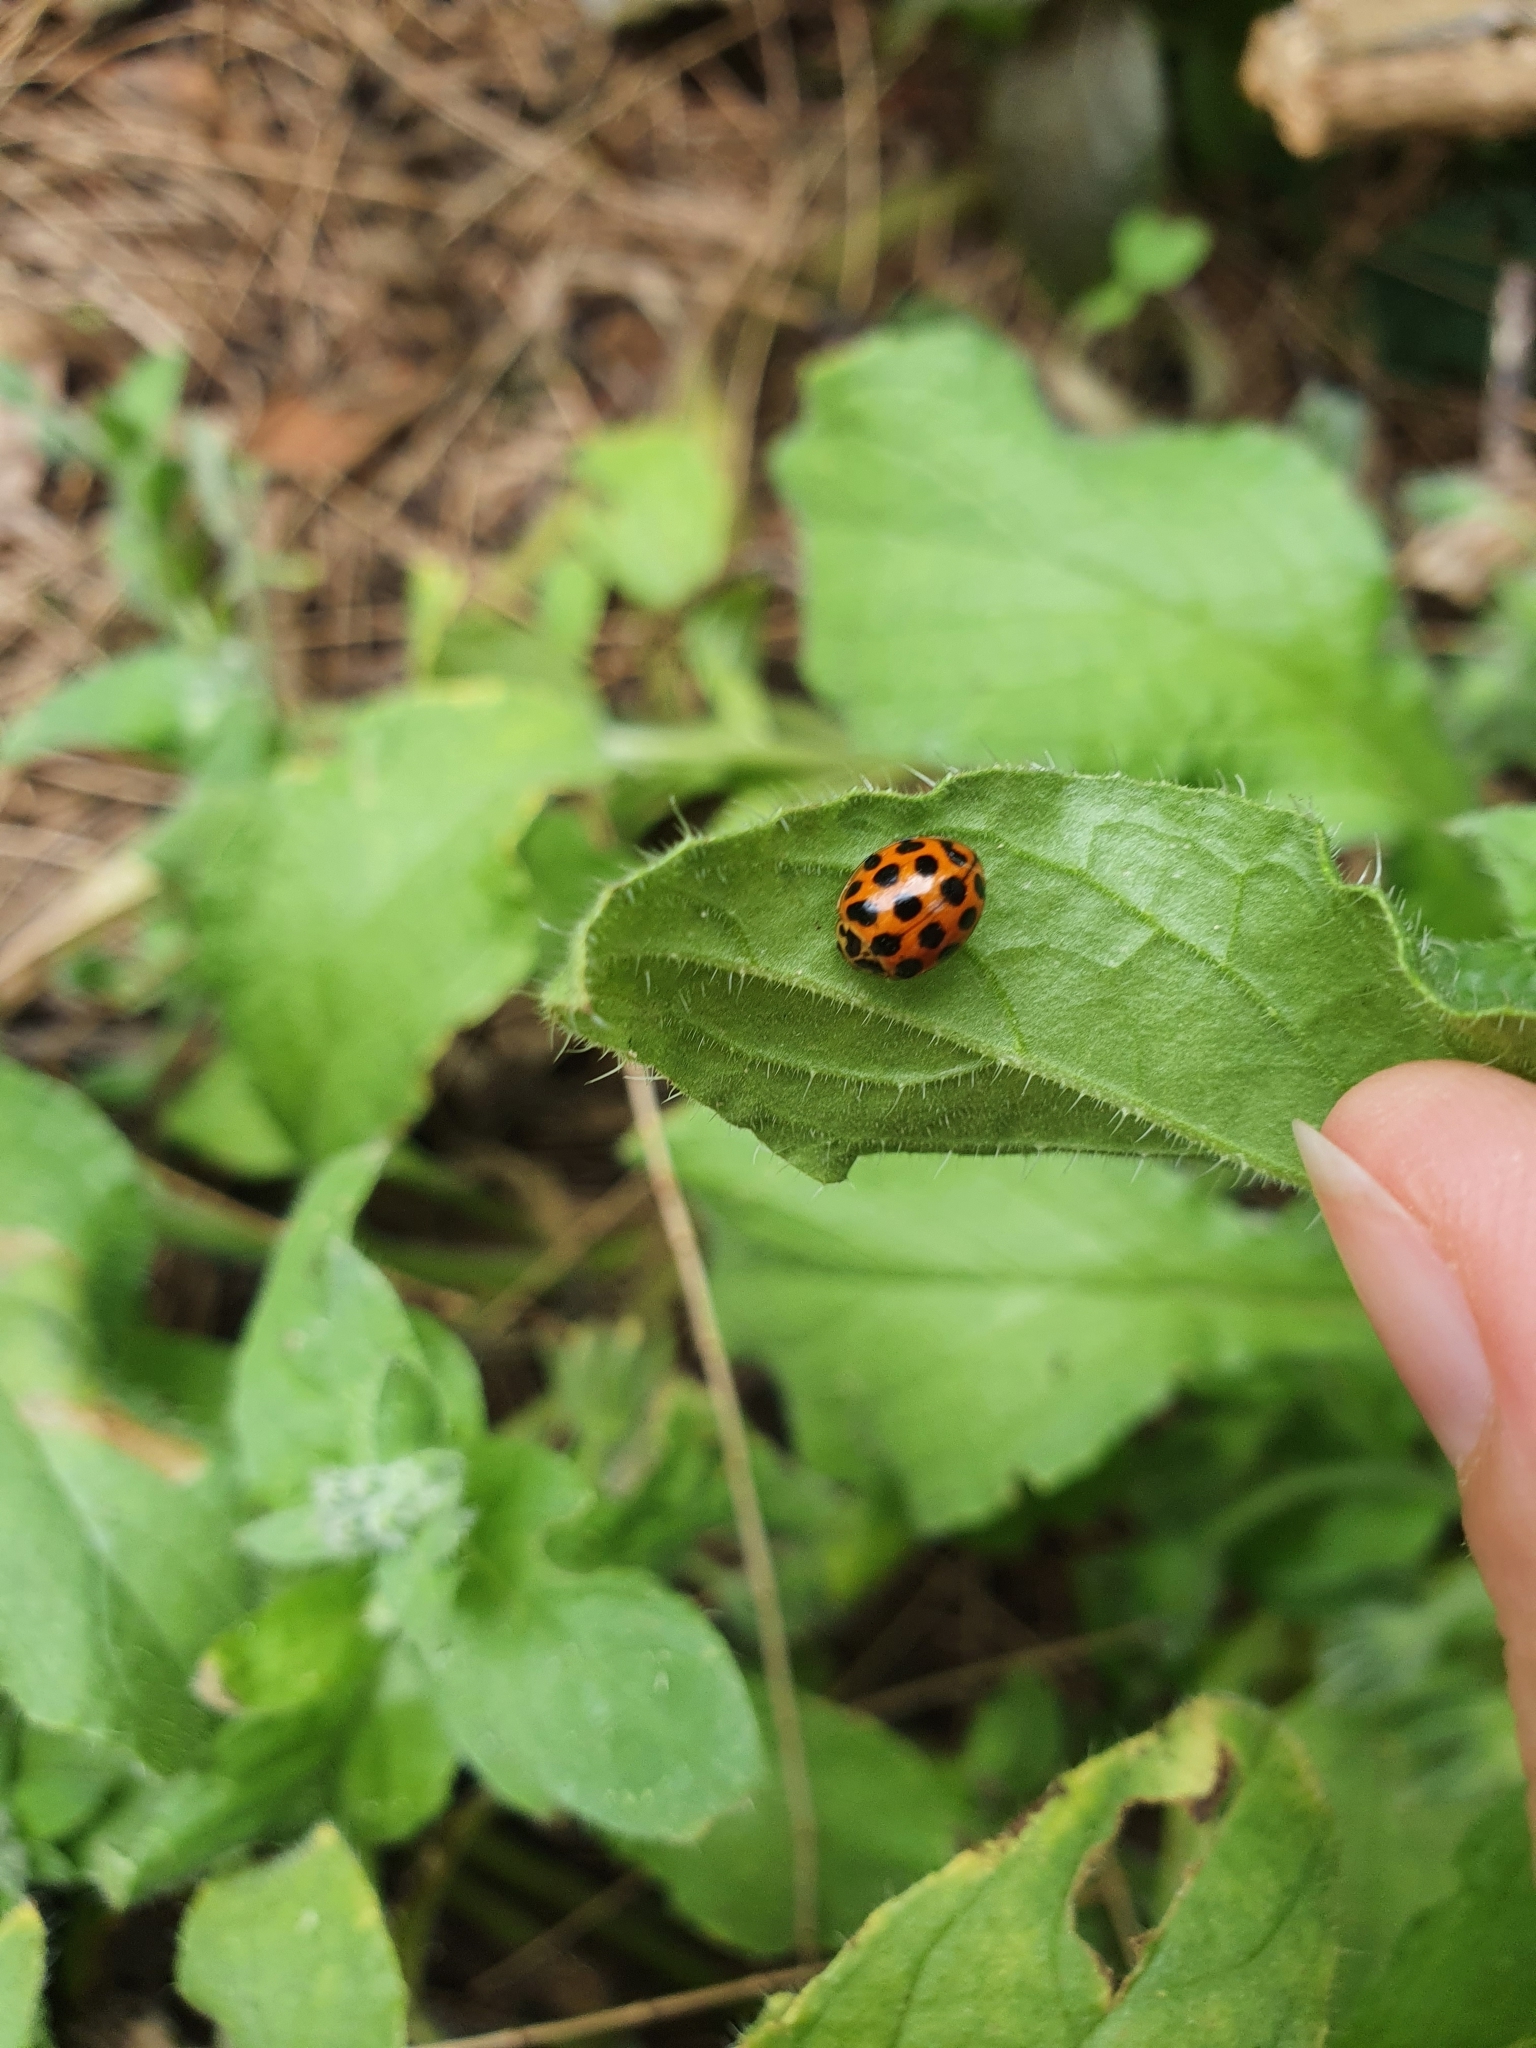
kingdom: Animalia
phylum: Arthropoda
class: Insecta
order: Coleoptera
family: Coccinellidae
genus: Harmonia
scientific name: Harmonia conformis
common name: Common spotted ladybird beetle
